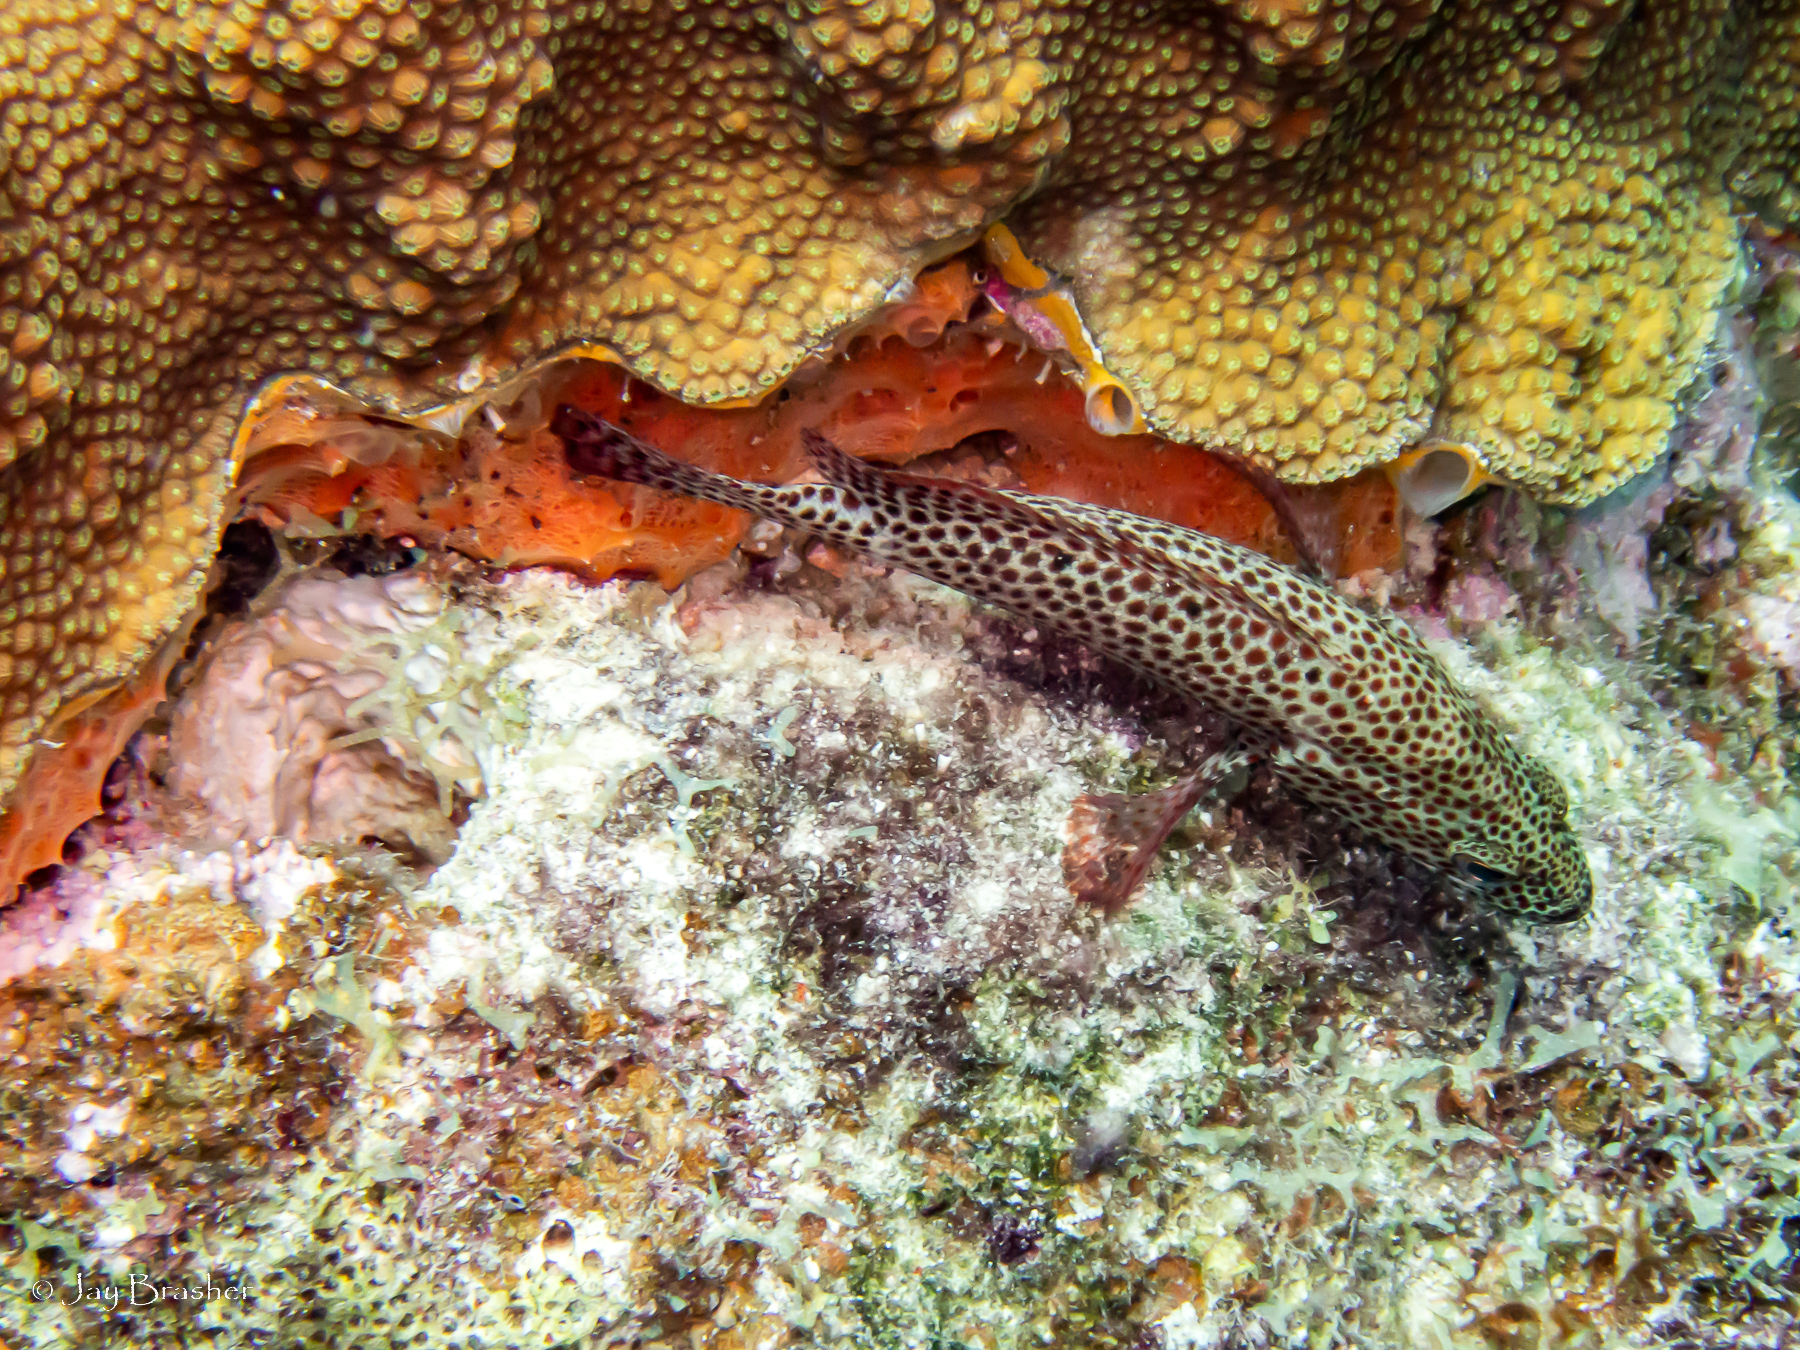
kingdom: Animalia
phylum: Porifera
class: Demospongiae
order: Poecilosclerida
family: Mycalidae
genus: Mycale
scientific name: Mycale laevis
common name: Orange icing sponge
